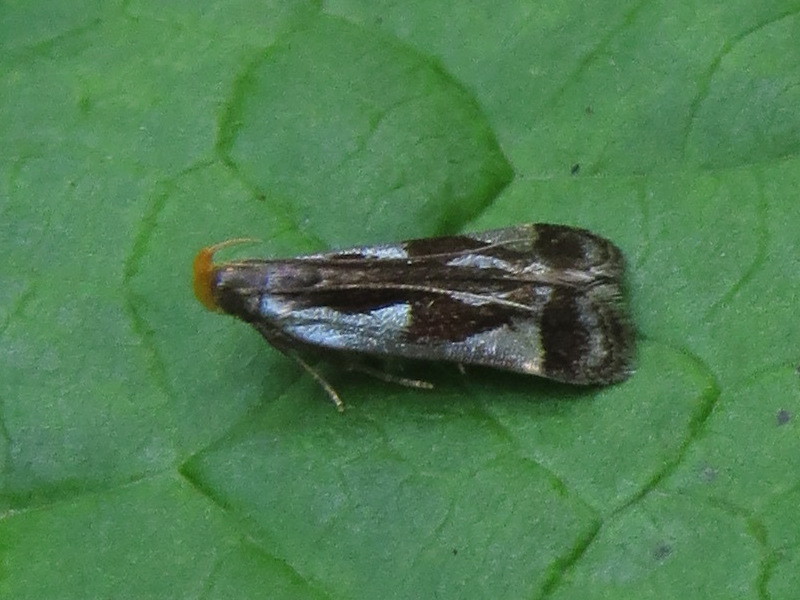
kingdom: Animalia
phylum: Arthropoda
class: Insecta
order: Lepidoptera
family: Gelechiidae
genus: Dichomeris
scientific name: Dichomeris ochripalpella
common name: Shining dichomeris moth
